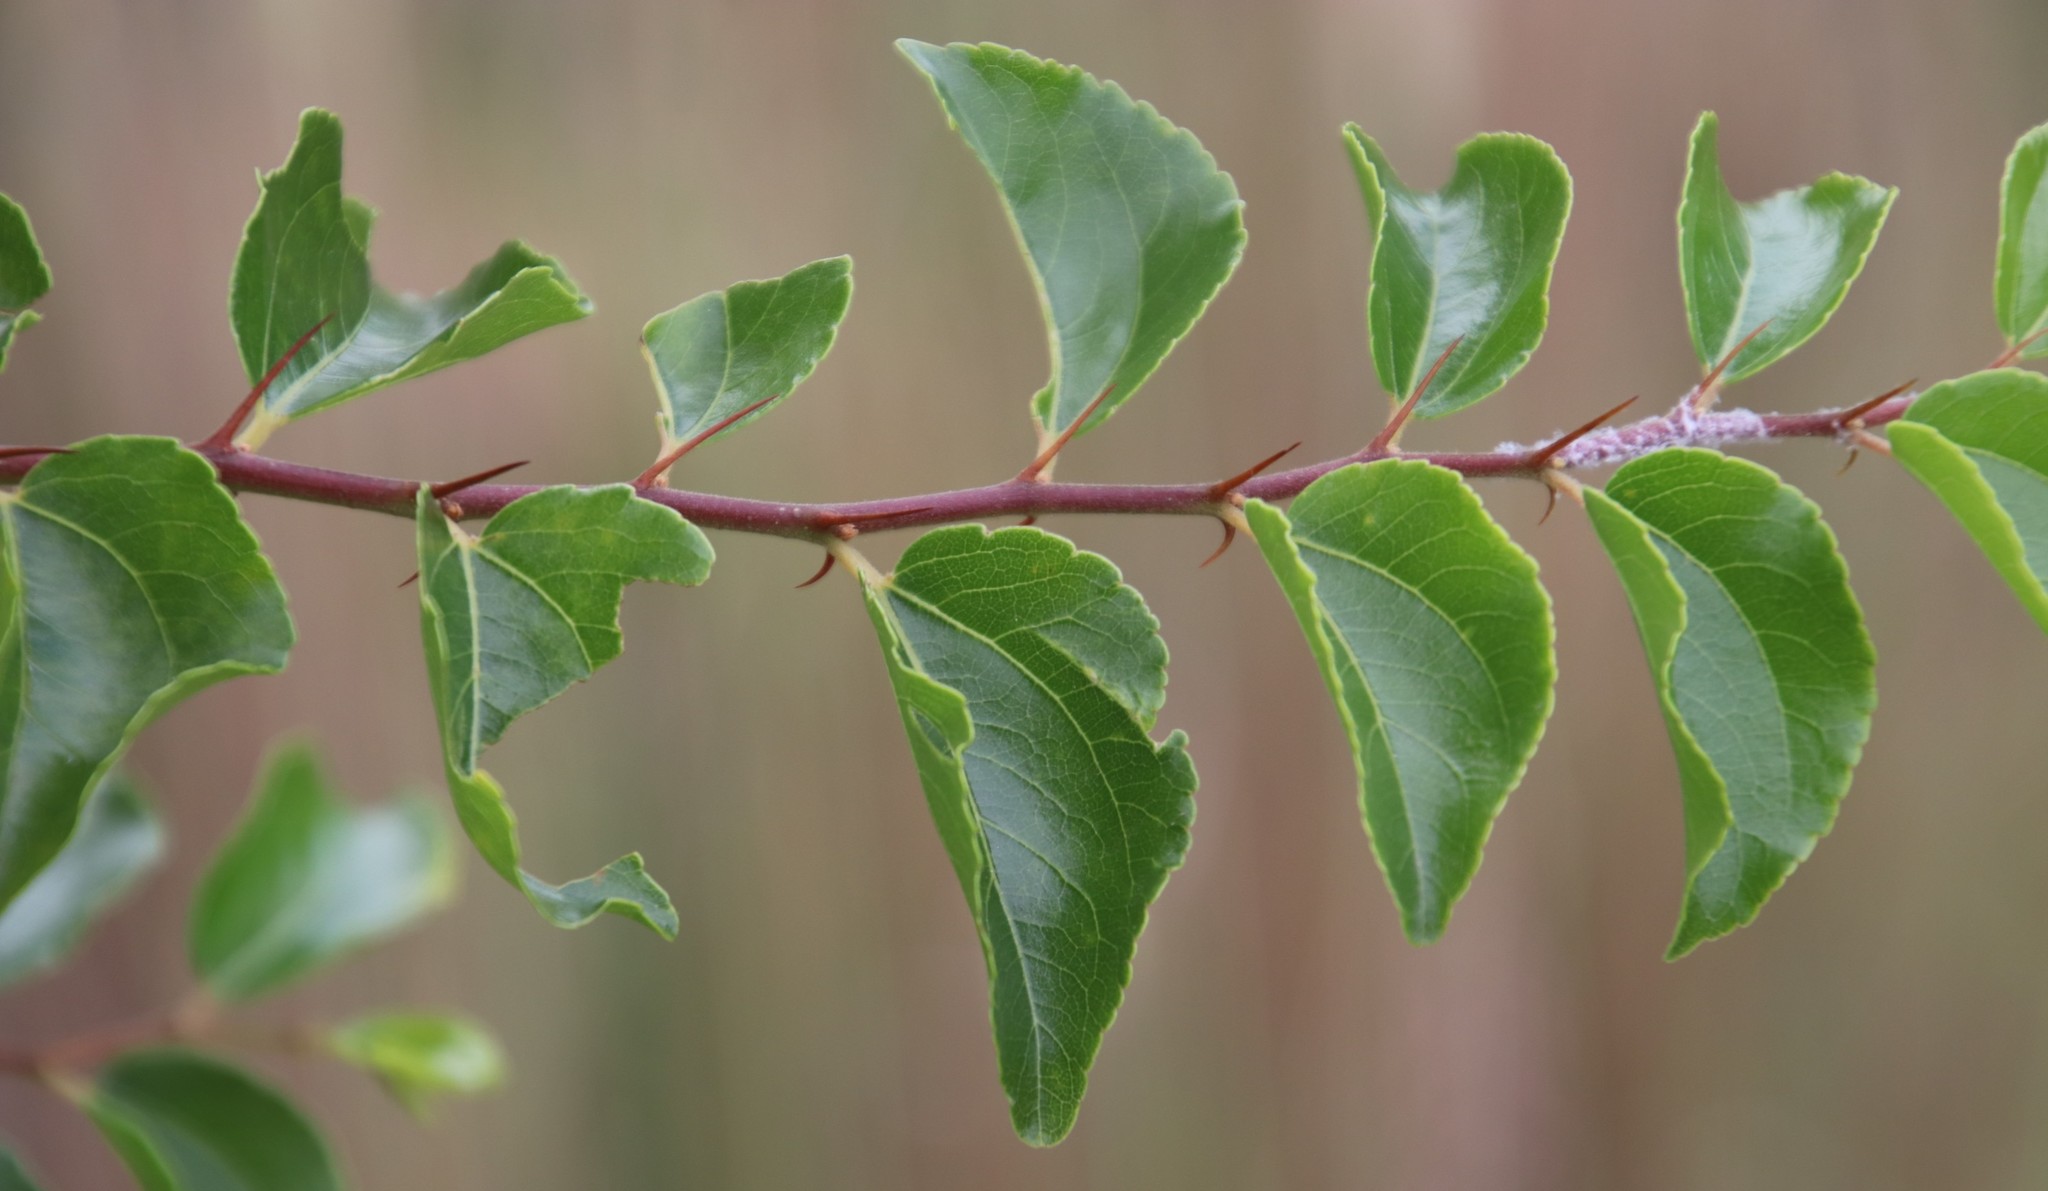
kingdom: Plantae
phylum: Tracheophyta
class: Magnoliopsida
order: Rosales
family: Rhamnaceae
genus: Ziziphus
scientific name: Ziziphus mucronata
